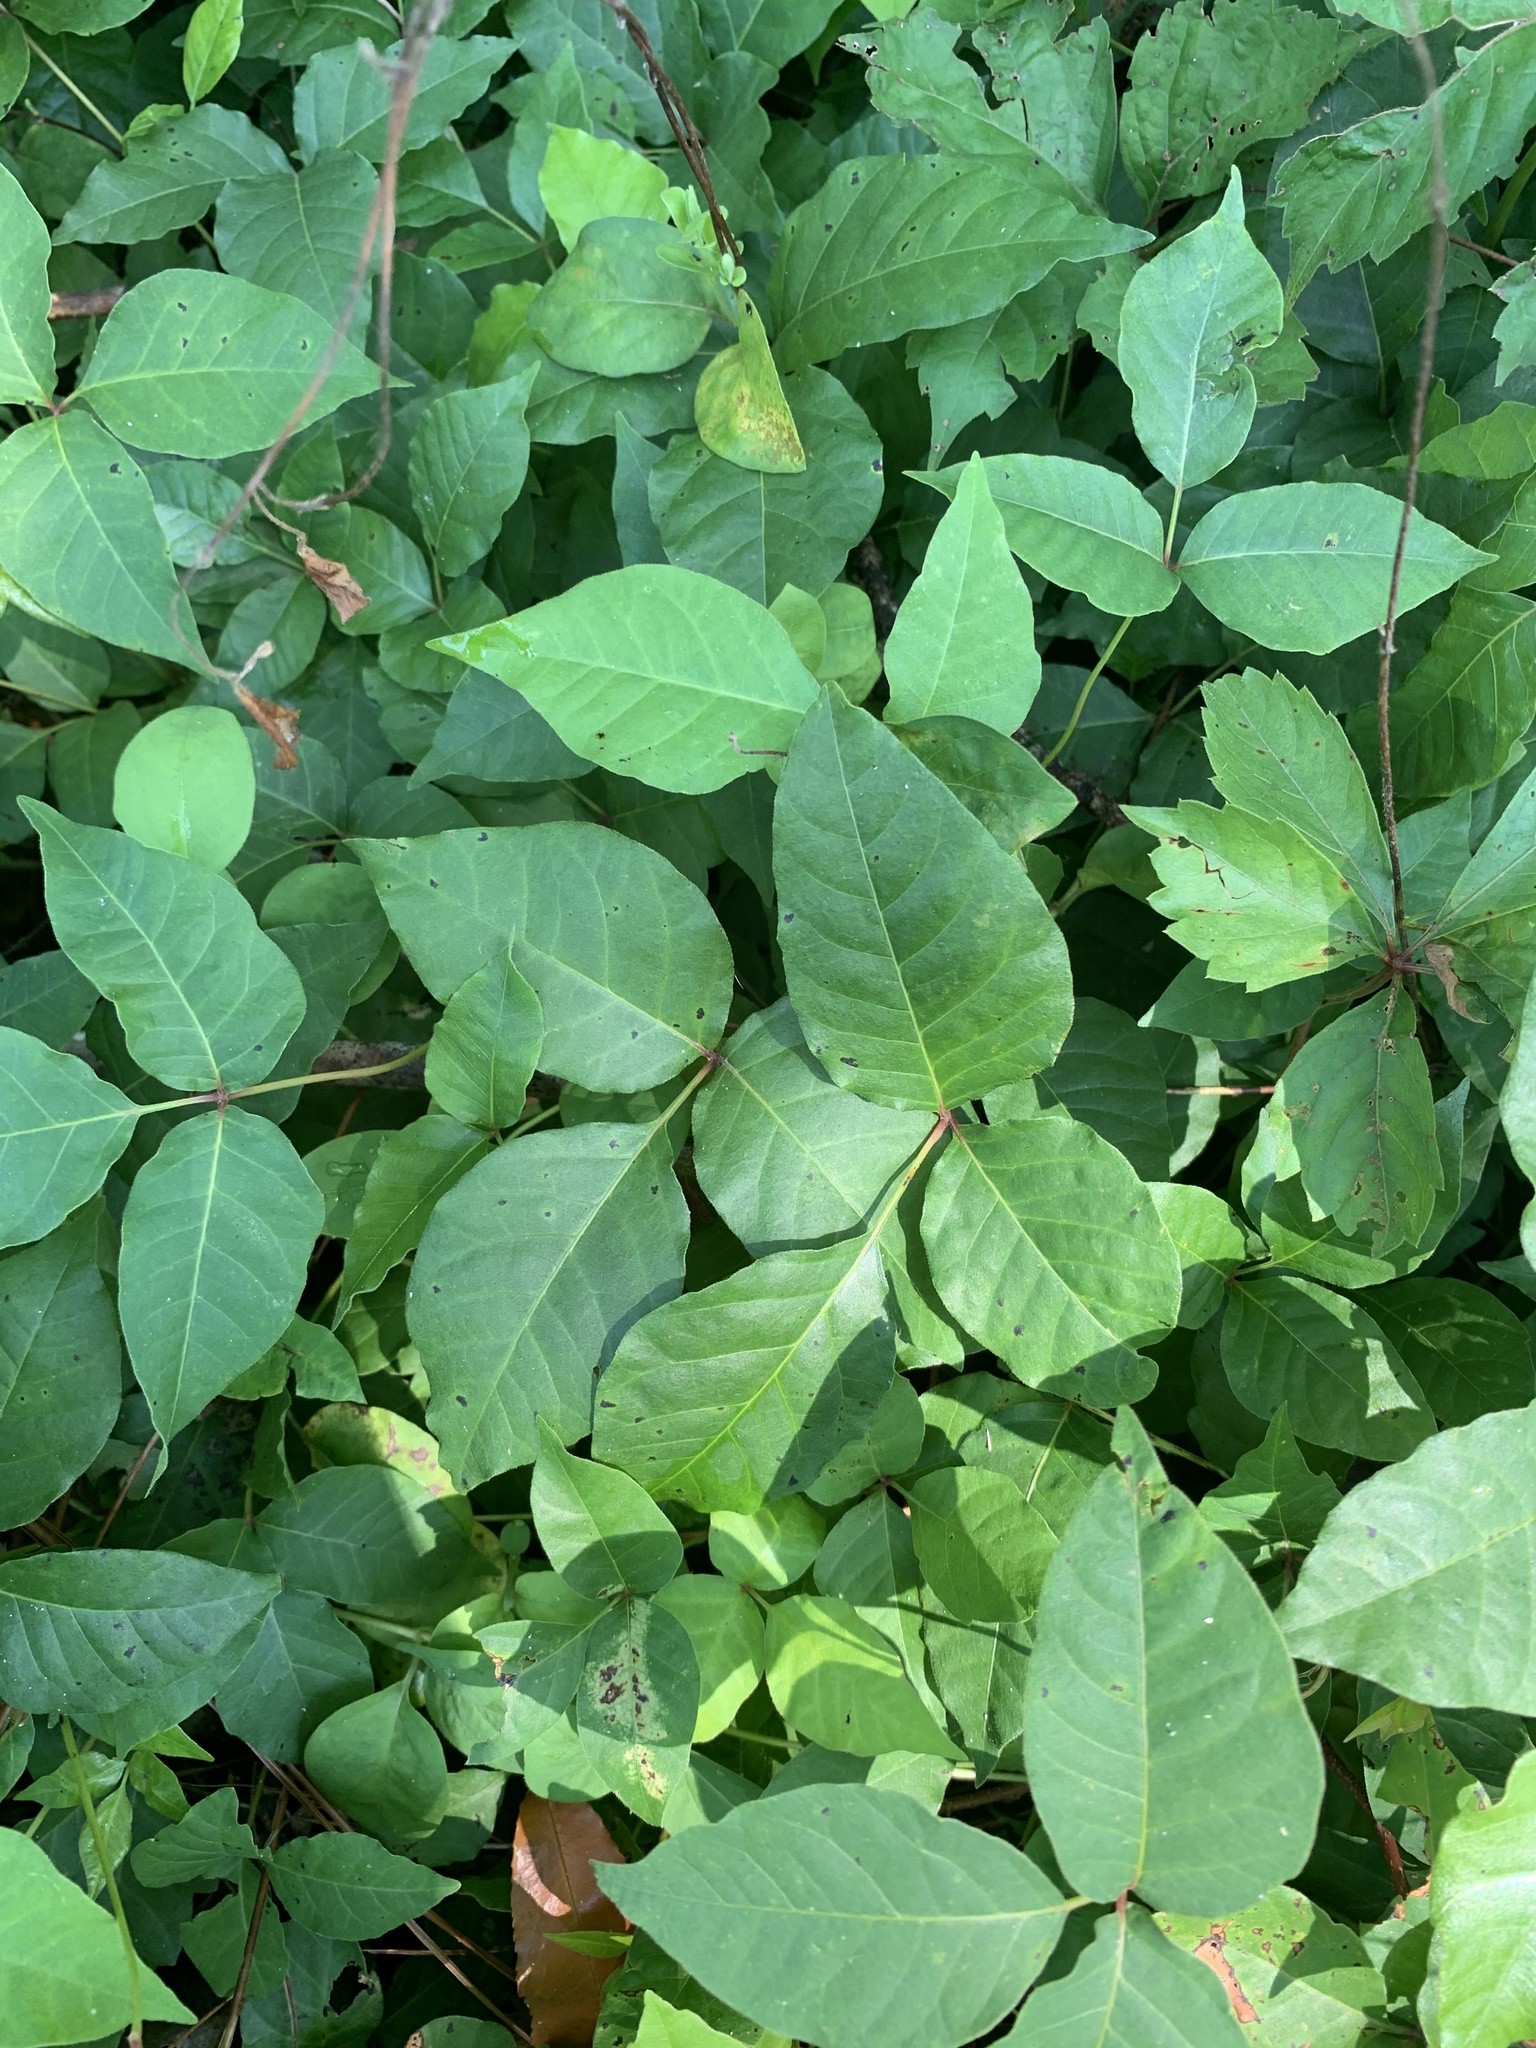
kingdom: Plantae
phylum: Tracheophyta
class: Magnoliopsida
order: Sapindales
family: Anacardiaceae
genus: Toxicodendron
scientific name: Toxicodendron radicans
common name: Poison ivy
